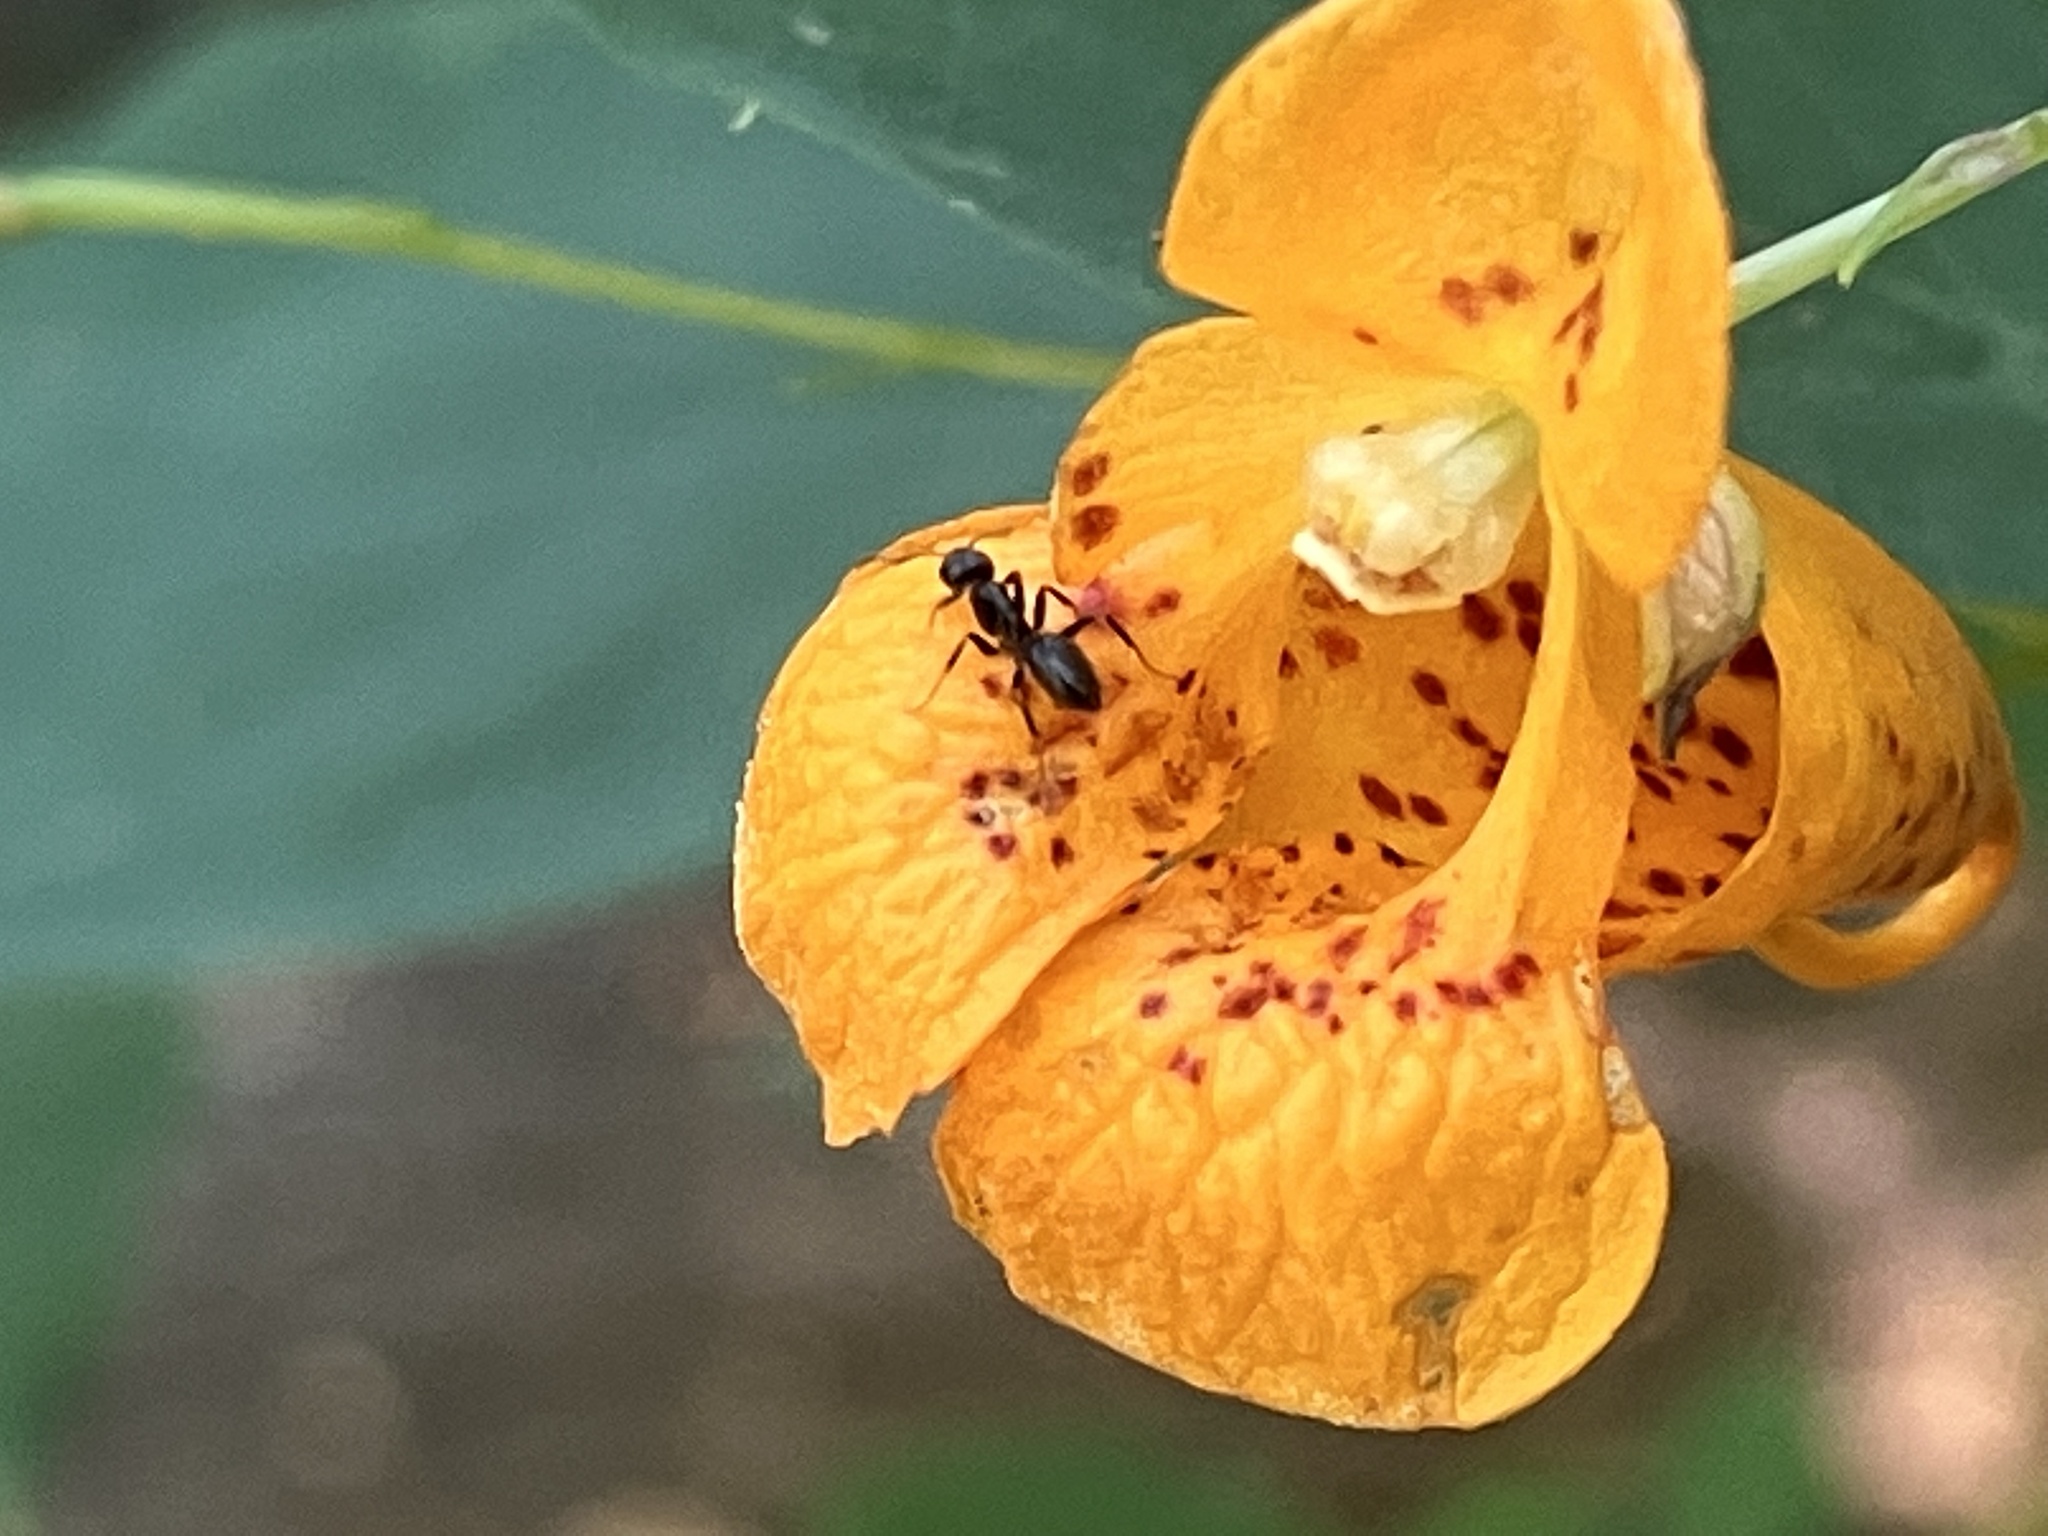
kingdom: Animalia
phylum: Arthropoda
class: Insecta
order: Hymenoptera
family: Formicidae
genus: Tapinoma
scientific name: Tapinoma sessile
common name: Odorous house ant
